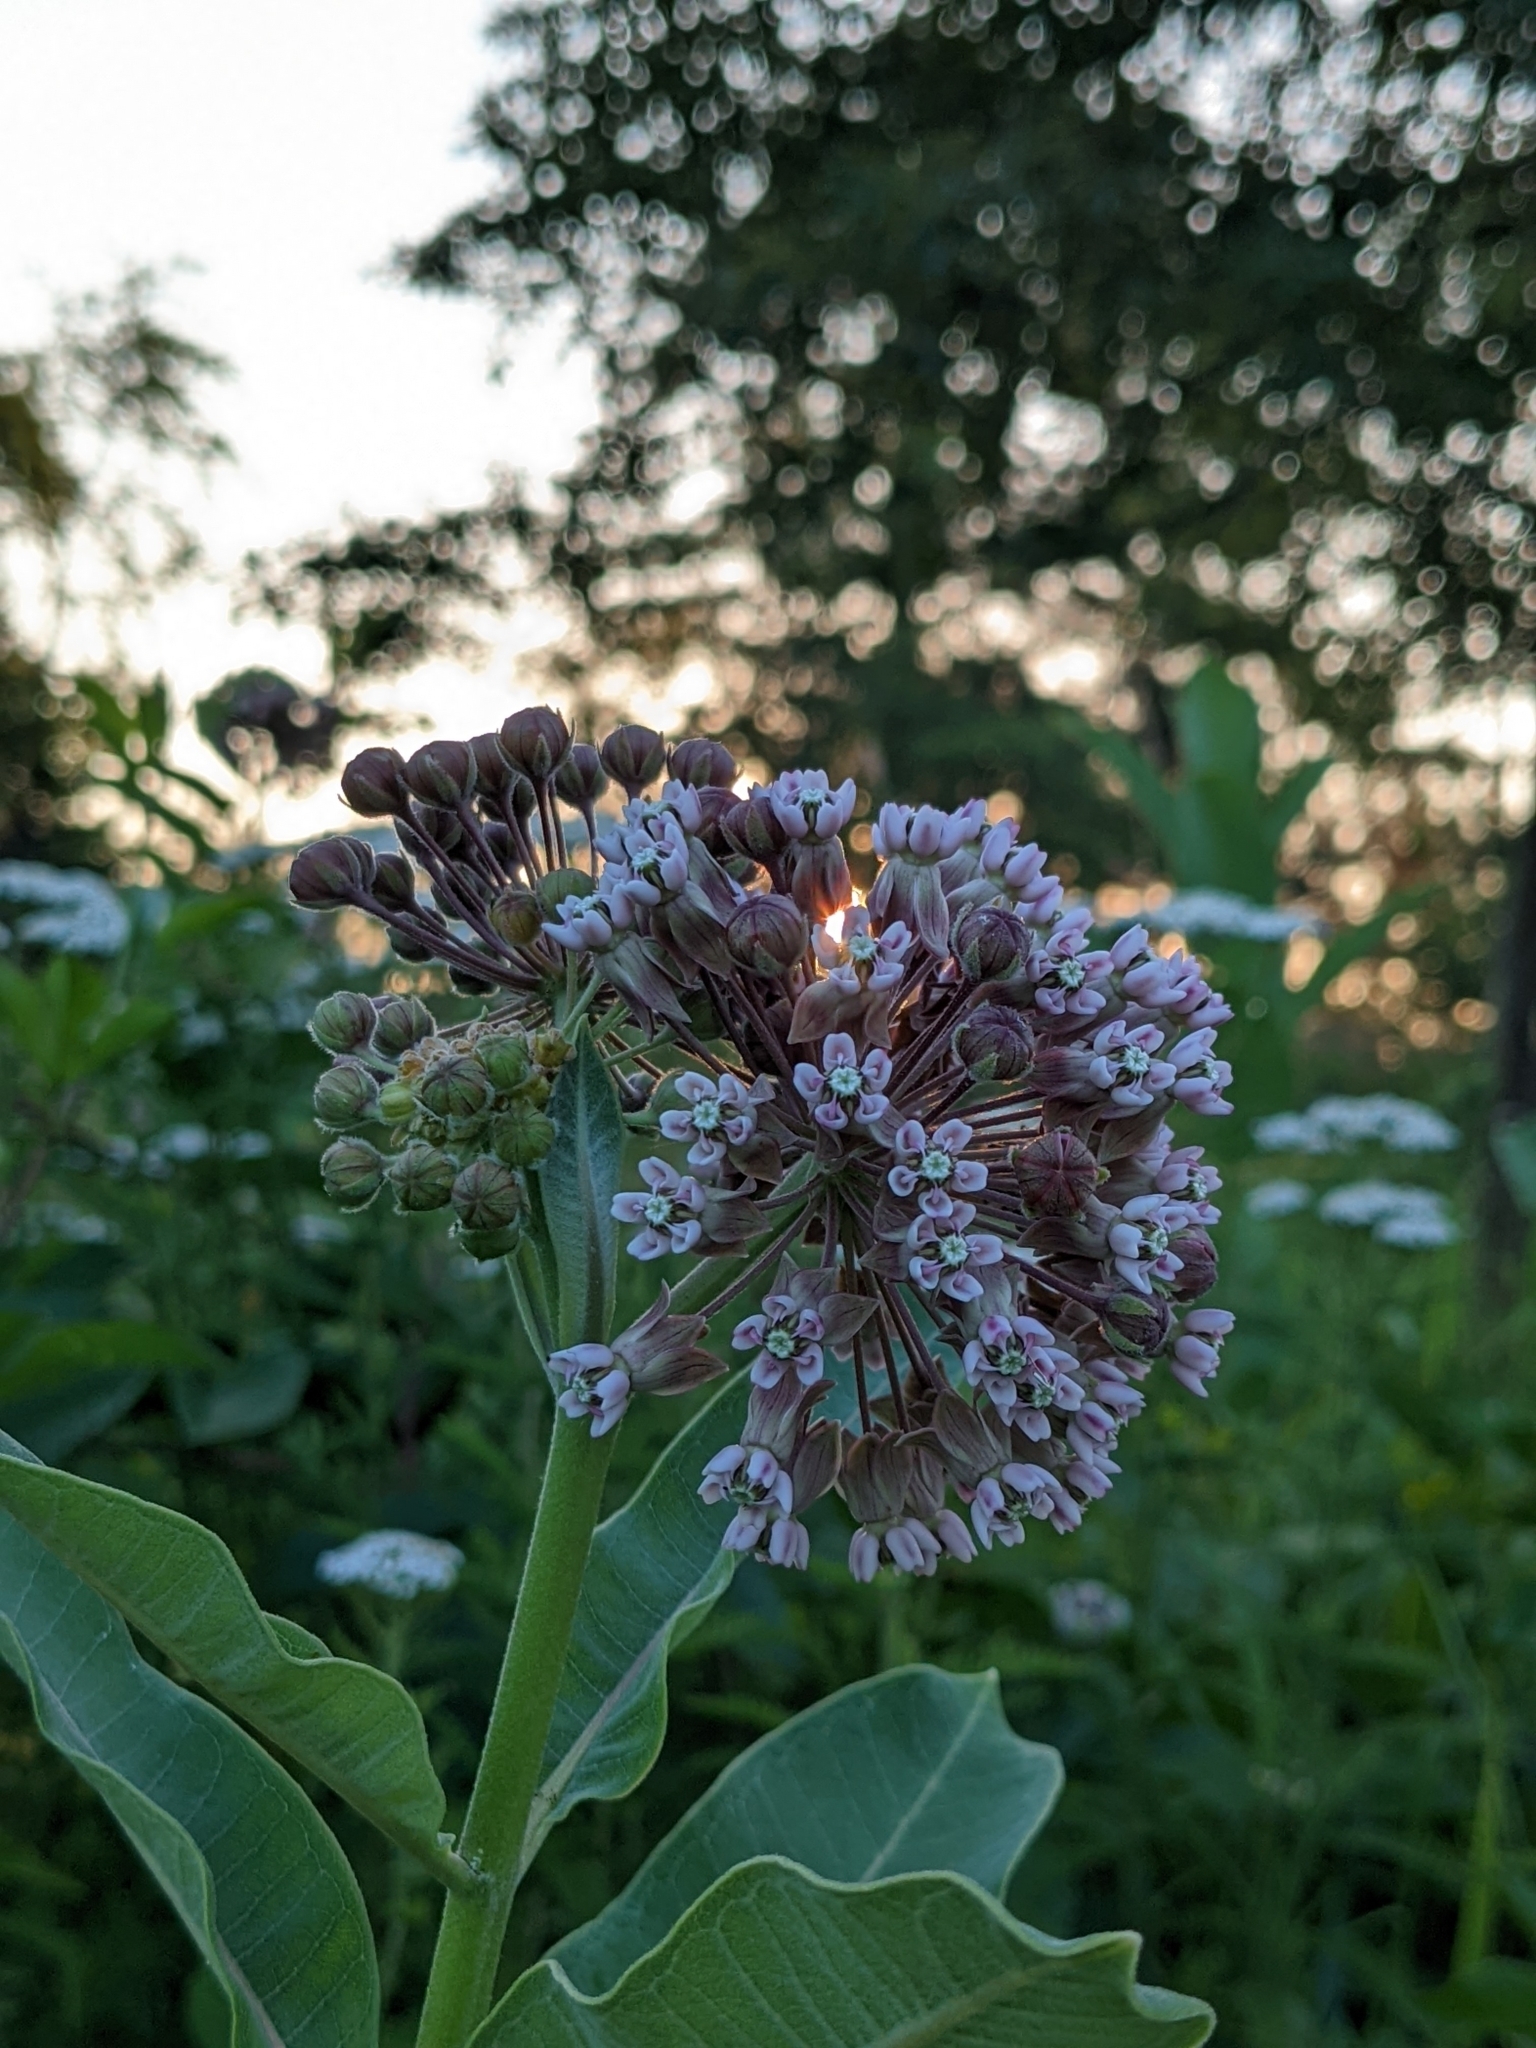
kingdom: Plantae
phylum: Tracheophyta
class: Magnoliopsida
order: Gentianales
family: Apocynaceae
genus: Asclepias
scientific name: Asclepias syriaca
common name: Common milkweed
